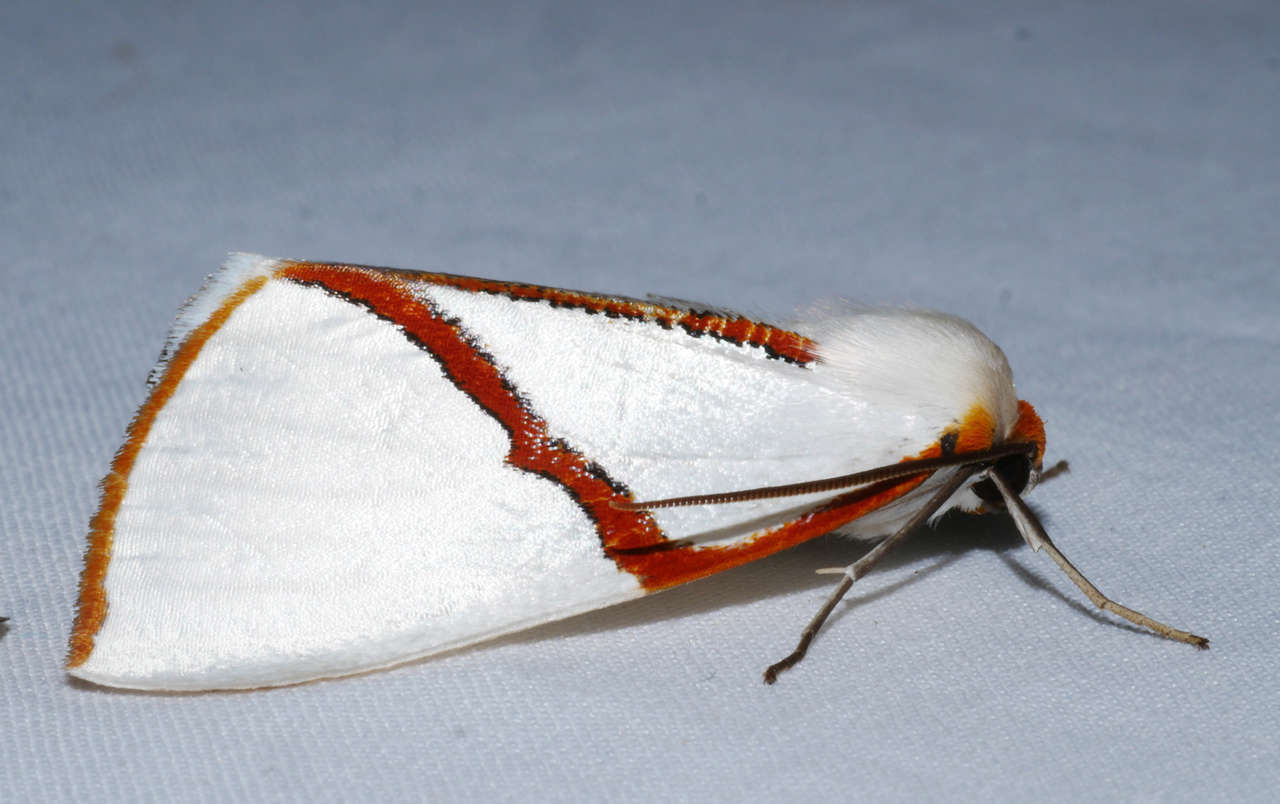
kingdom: Animalia
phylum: Arthropoda
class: Insecta
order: Lepidoptera
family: Geometridae
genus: Thalaina
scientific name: Thalaina selenaea
